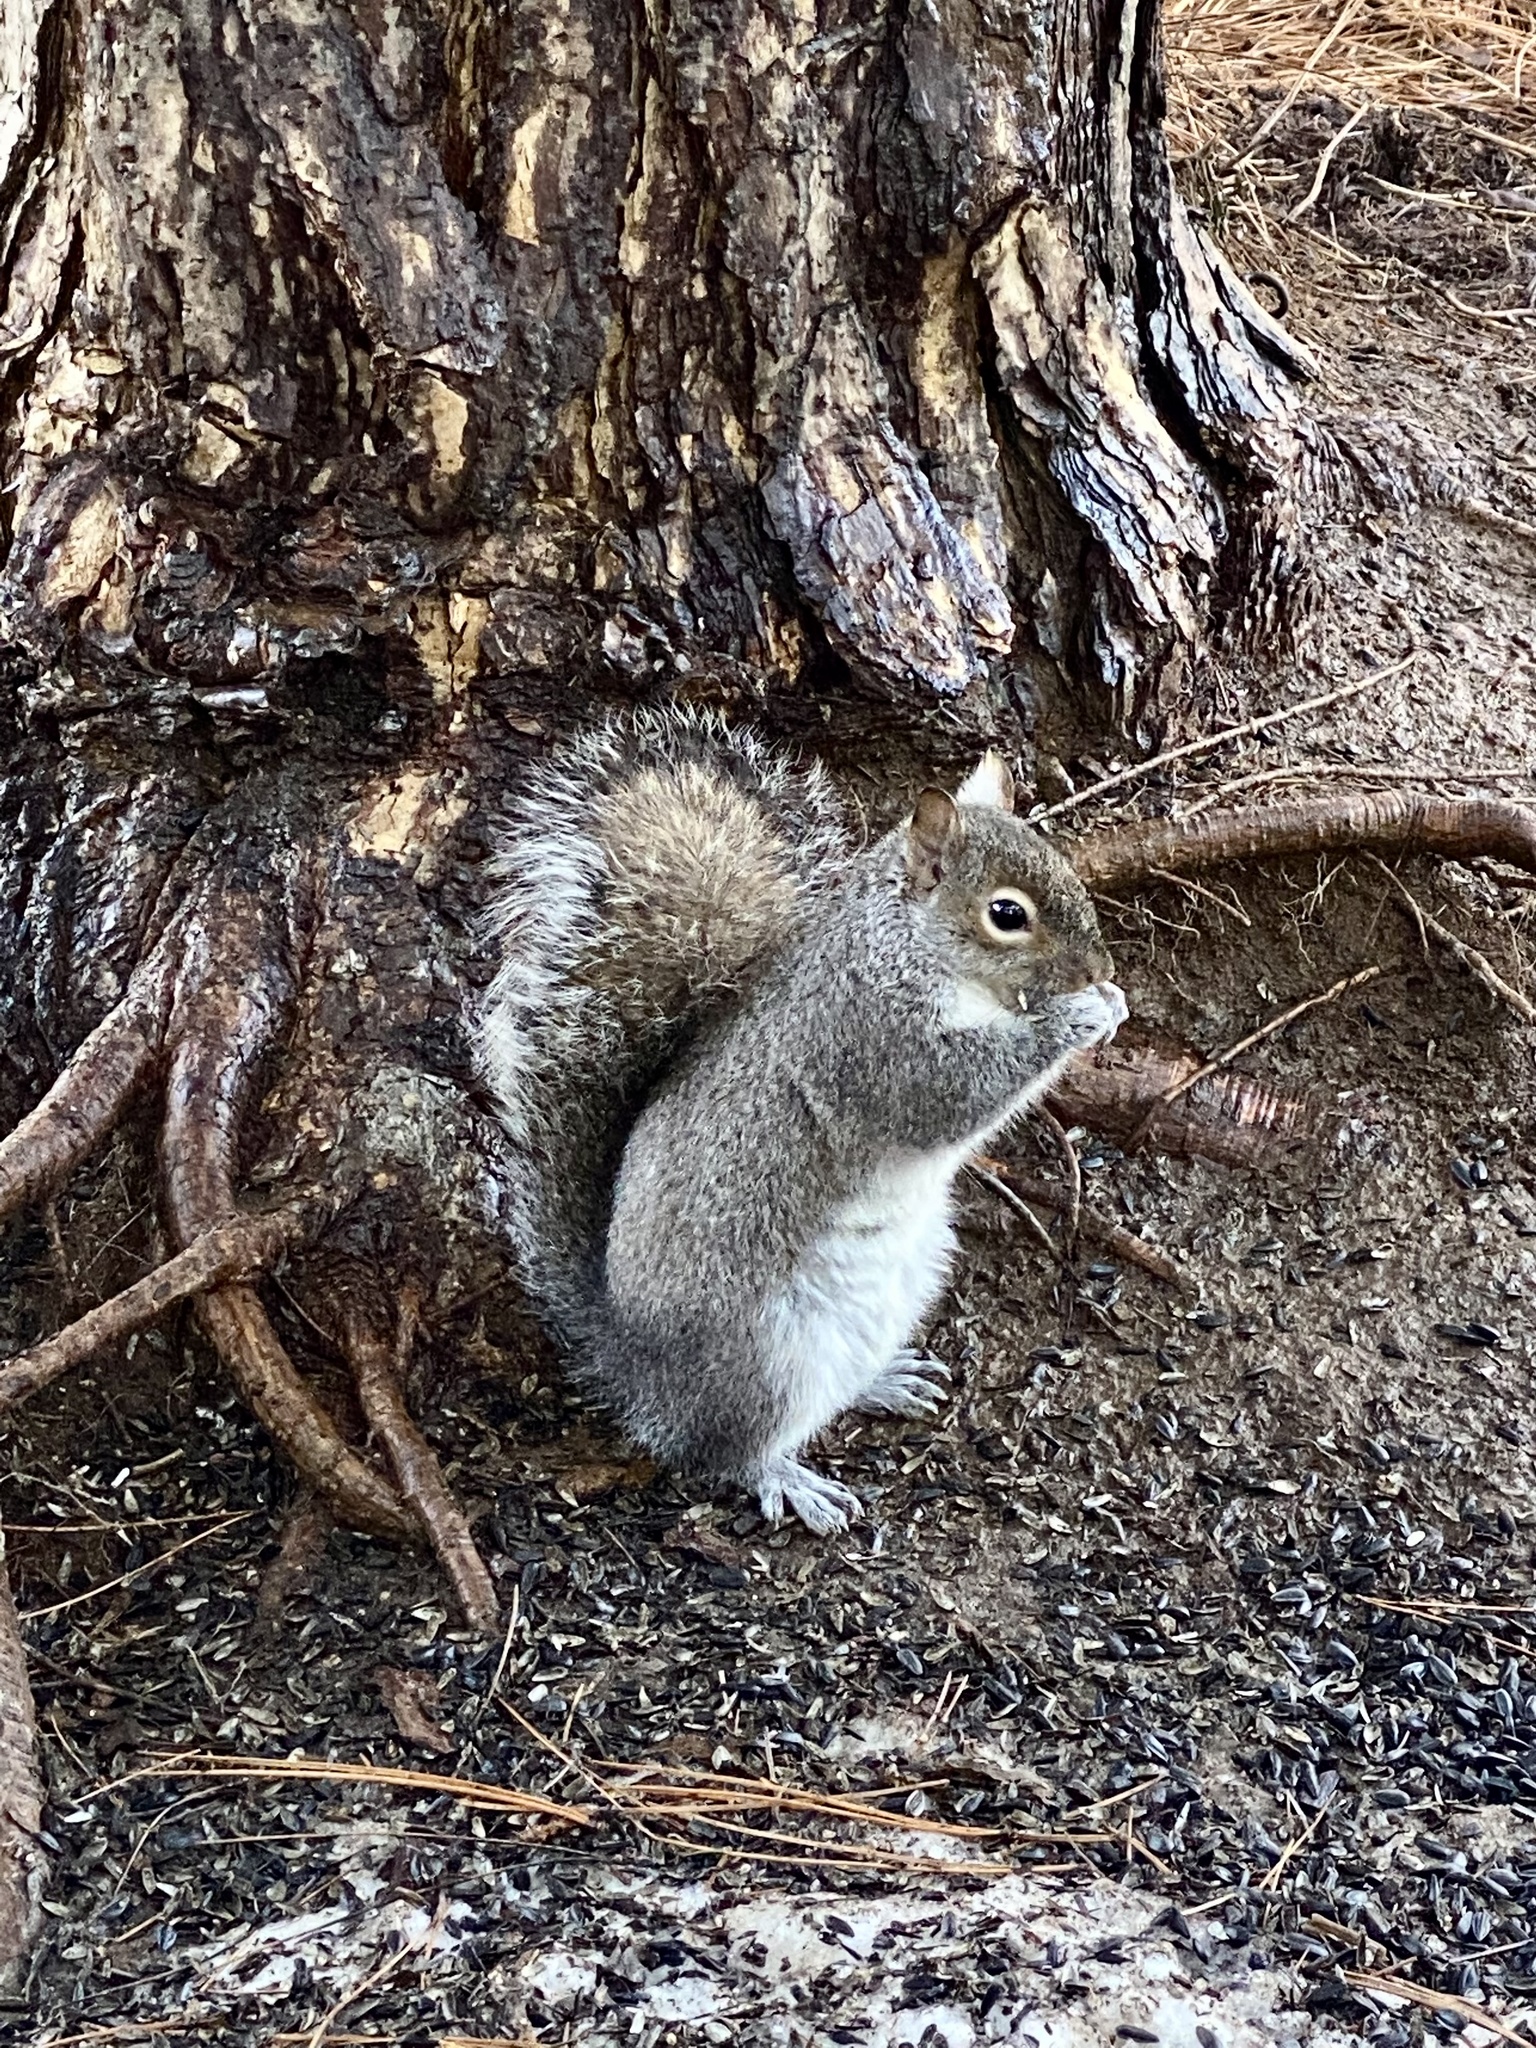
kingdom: Animalia
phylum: Chordata
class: Mammalia
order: Rodentia
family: Sciuridae
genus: Sciurus
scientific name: Sciurus carolinensis
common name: Eastern gray squirrel
